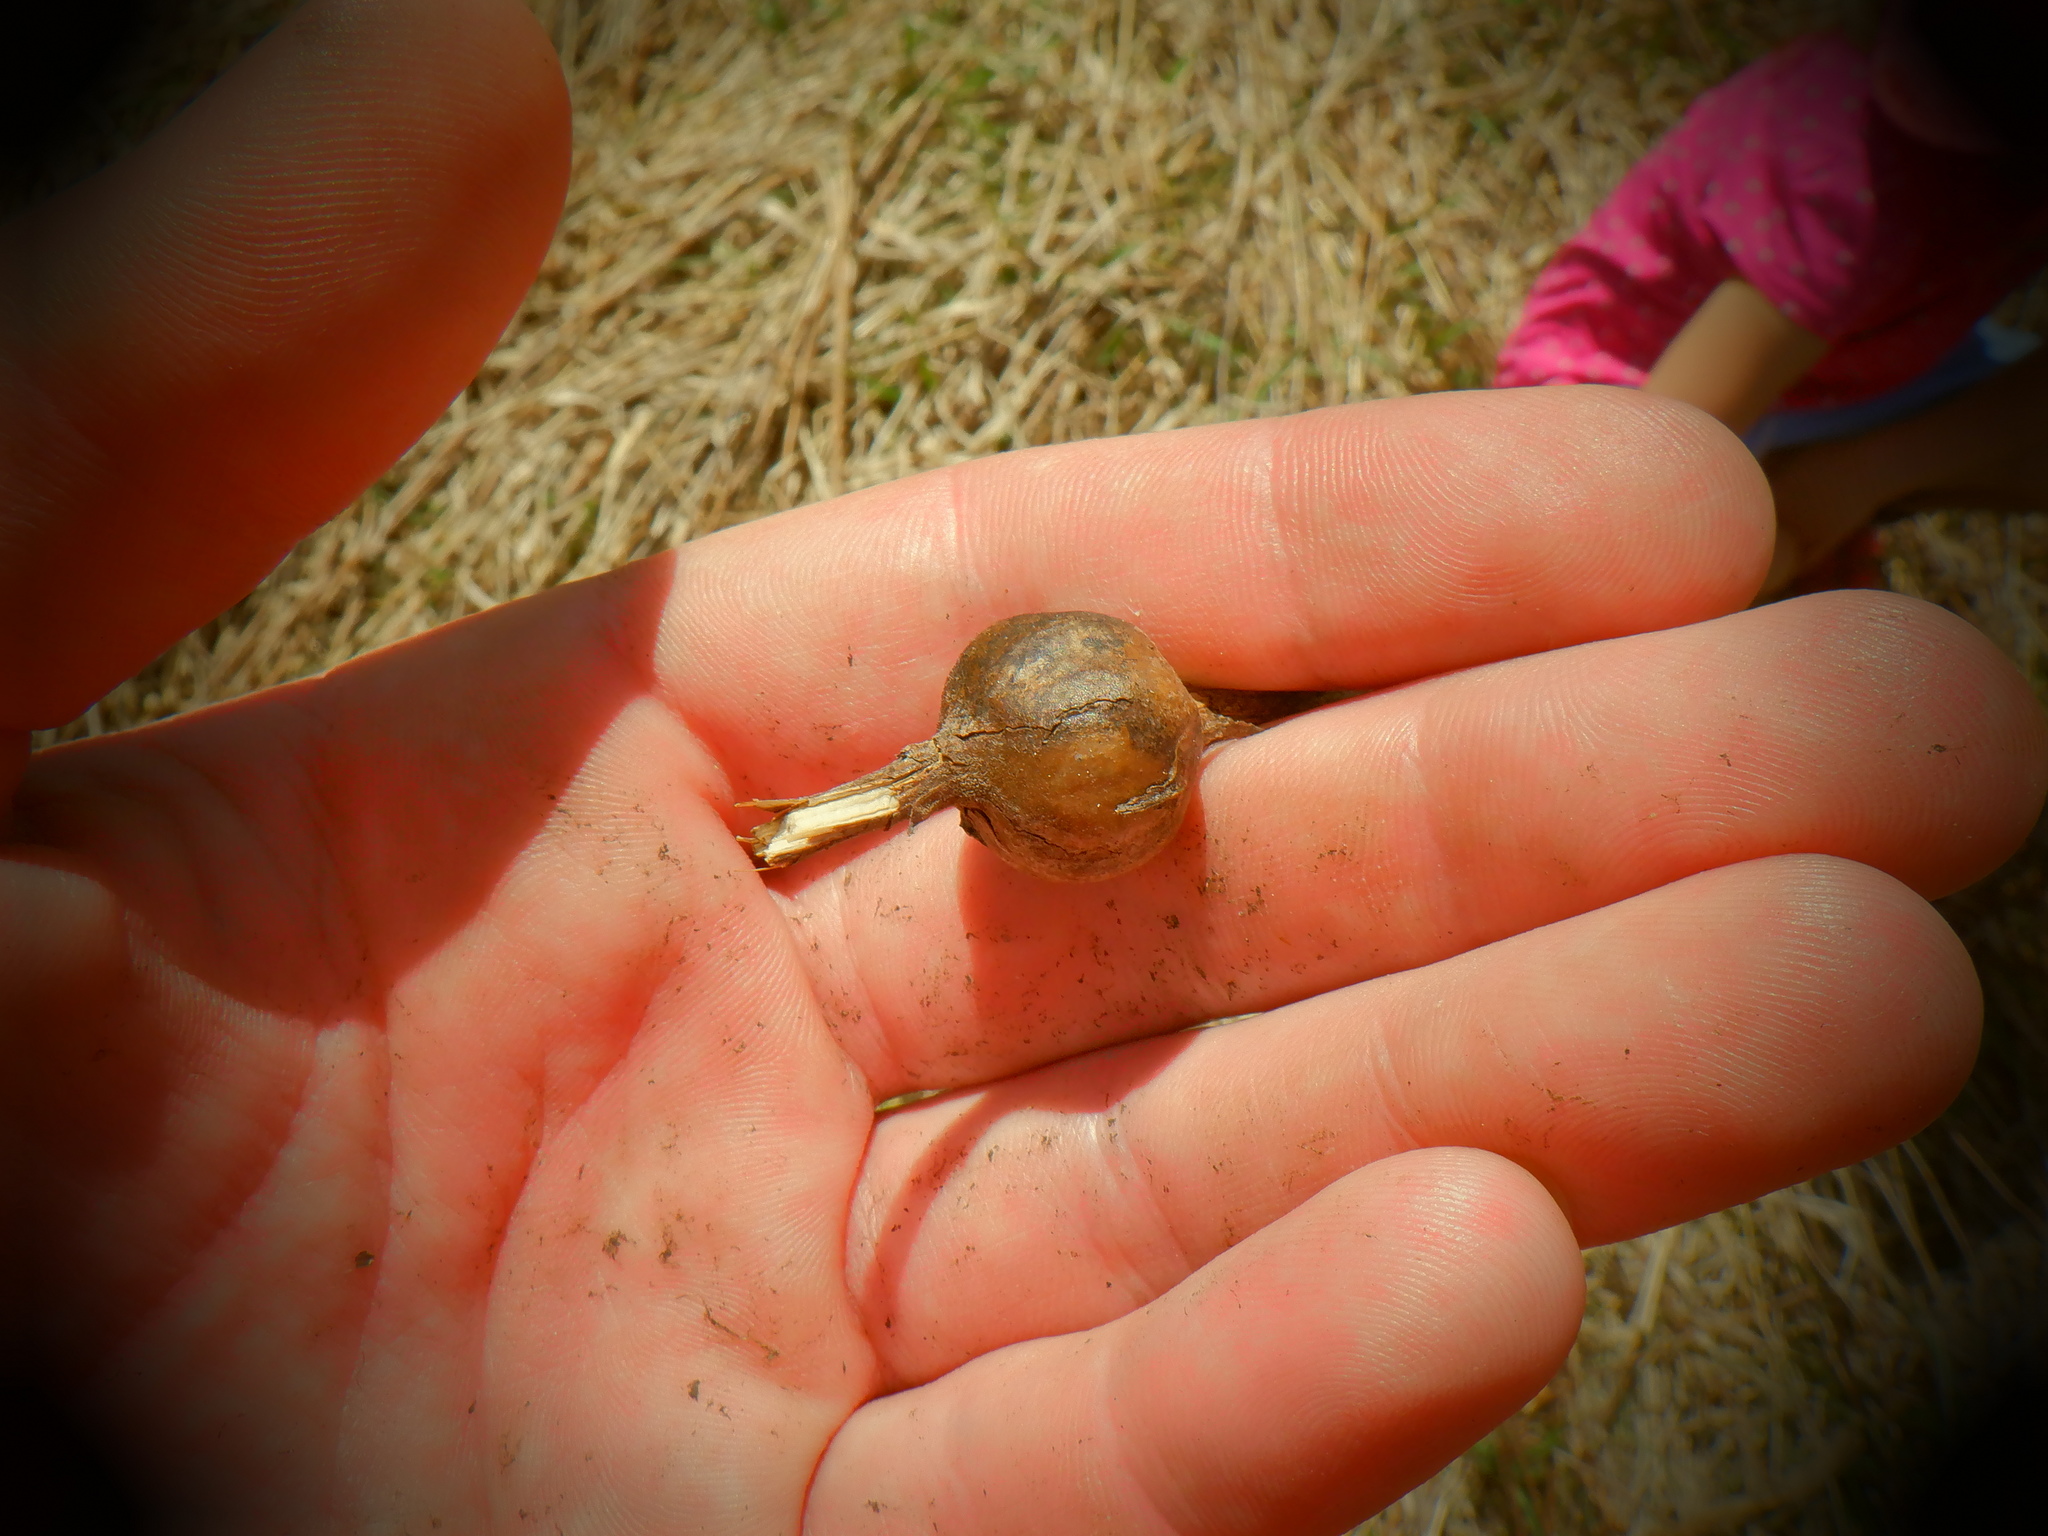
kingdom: Animalia
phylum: Arthropoda
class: Insecta
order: Diptera
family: Tephritidae
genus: Eurosta
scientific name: Eurosta solidaginis
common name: Goldenrod gall fly
